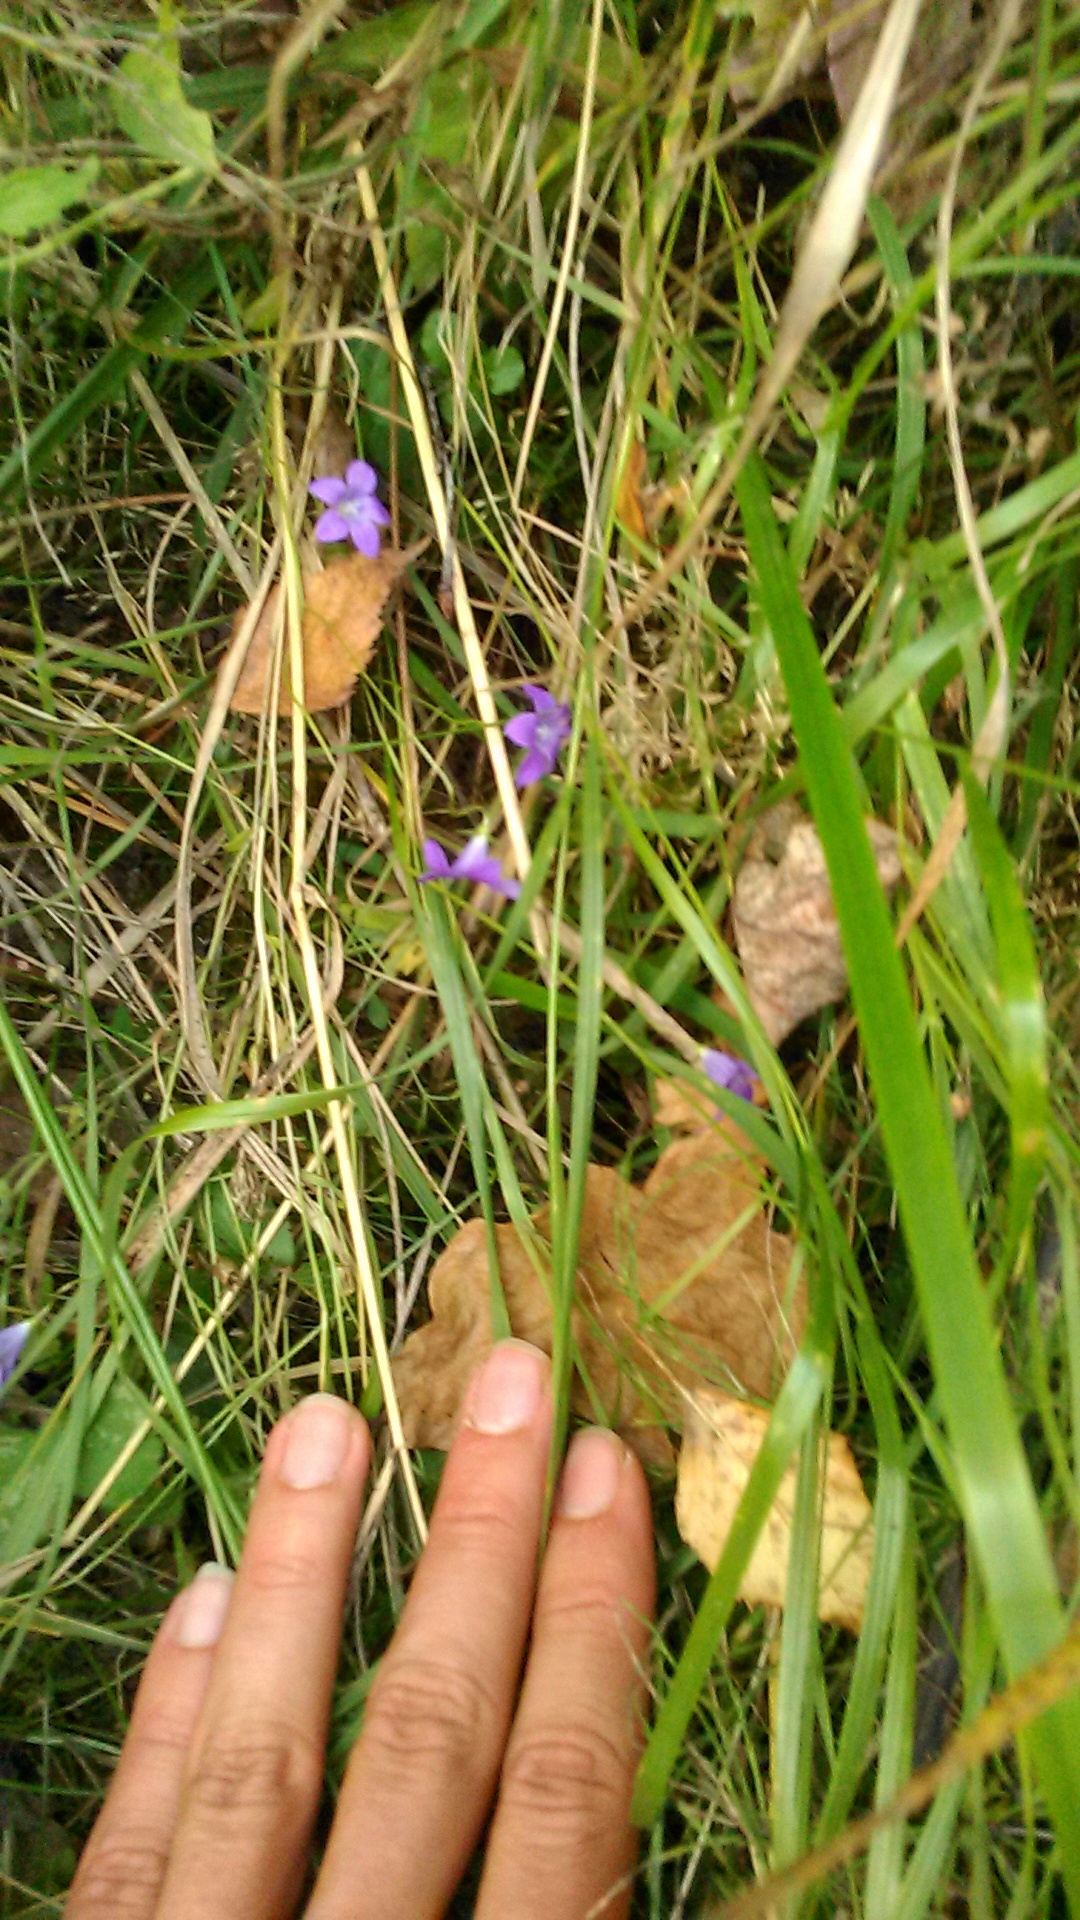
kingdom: Plantae
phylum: Tracheophyta
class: Magnoliopsida
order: Asterales
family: Campanulaceae
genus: Campanula
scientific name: Campanula patula
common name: Spreading bellflower
